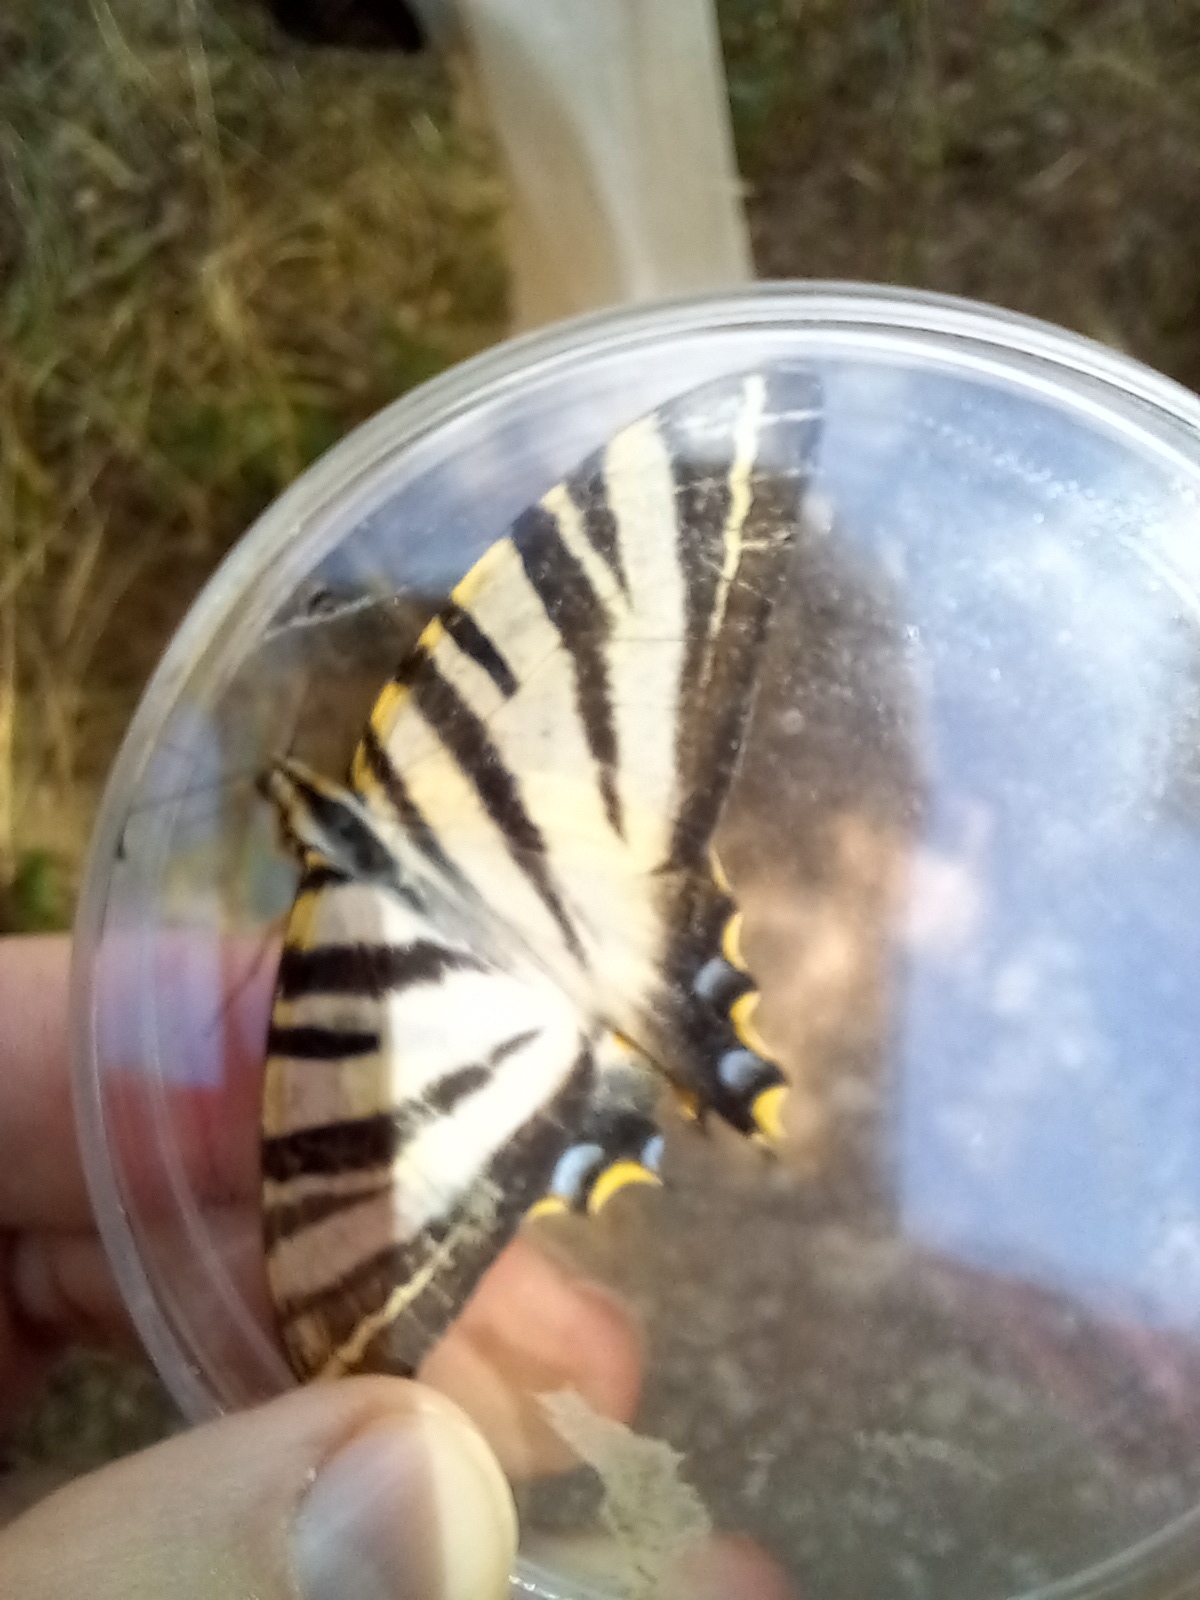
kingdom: Animalia
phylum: Arthropoda
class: Insecta
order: Lepidoptera
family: Papilionidae
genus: Iphiclides
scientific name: Iphiclides feisthamelii
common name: Iberian scarce swallowtail
